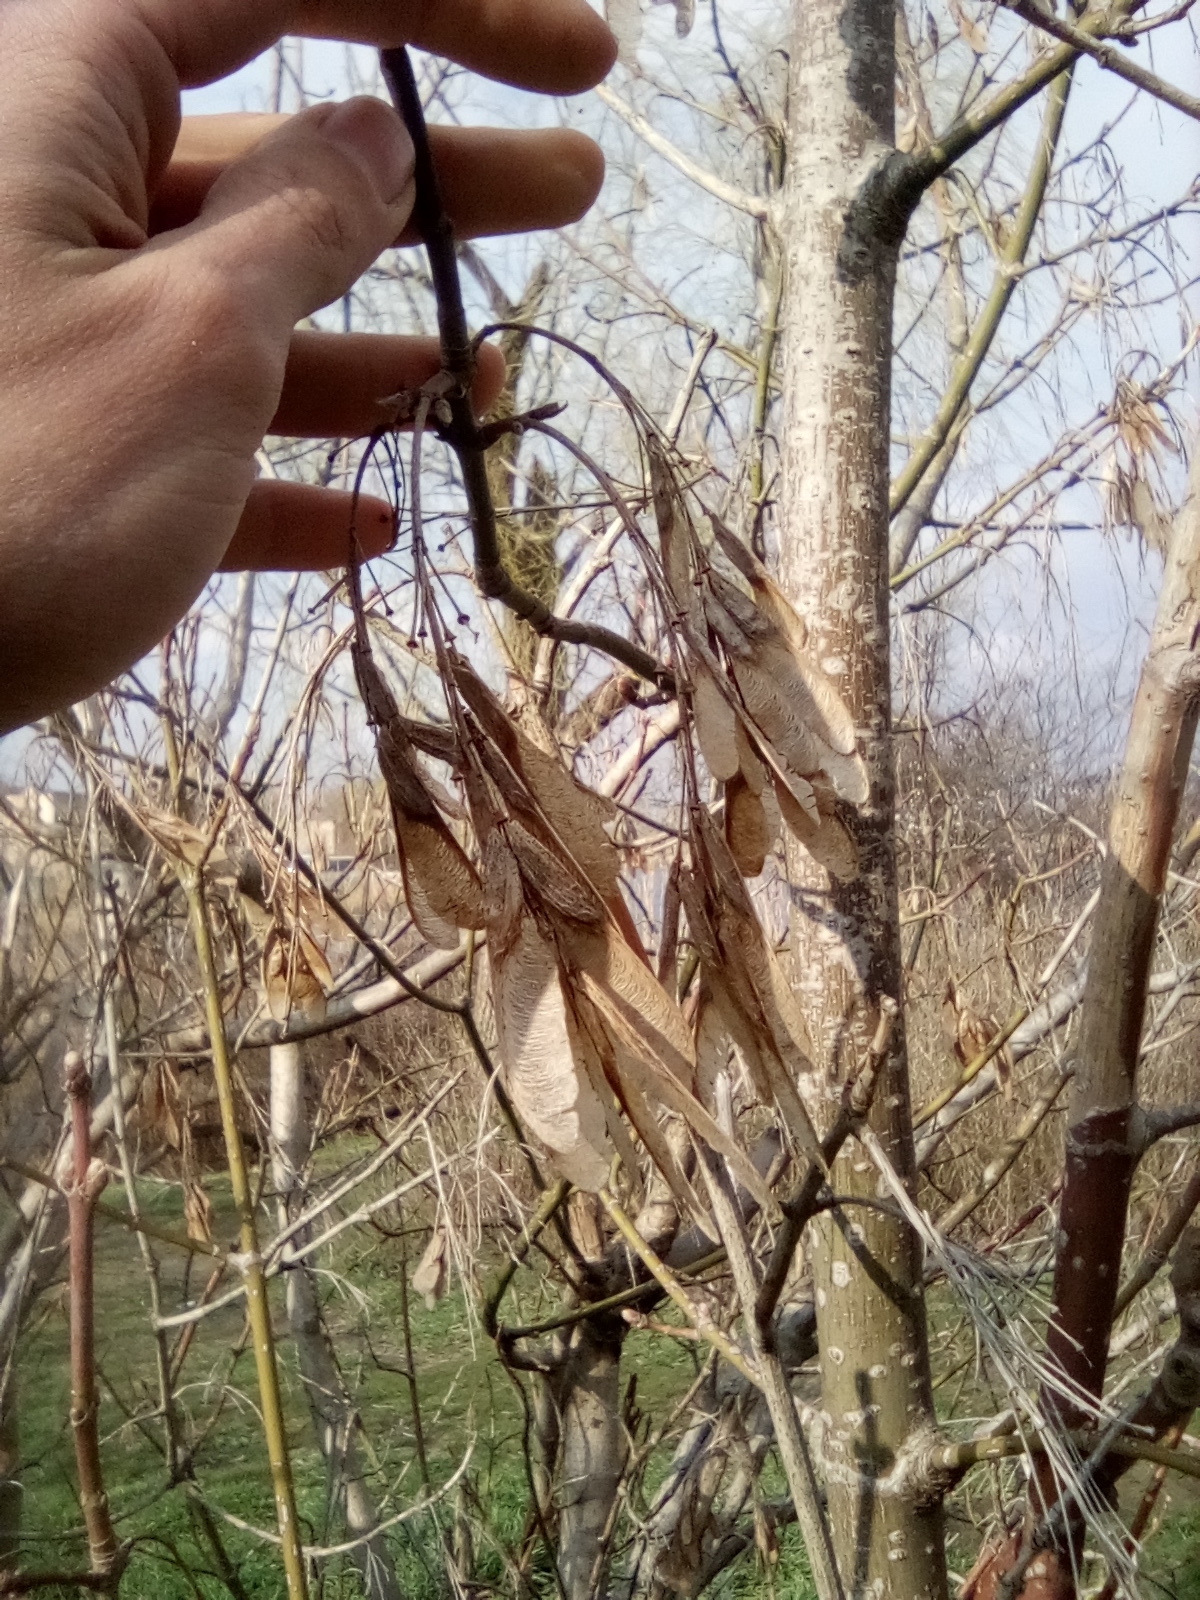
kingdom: Plantae
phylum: Tracheophyta
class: Magnoliopsida
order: Sapindales
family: Sapindaceae
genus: Acer
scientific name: Acer negundo
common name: Ashleaf maple
